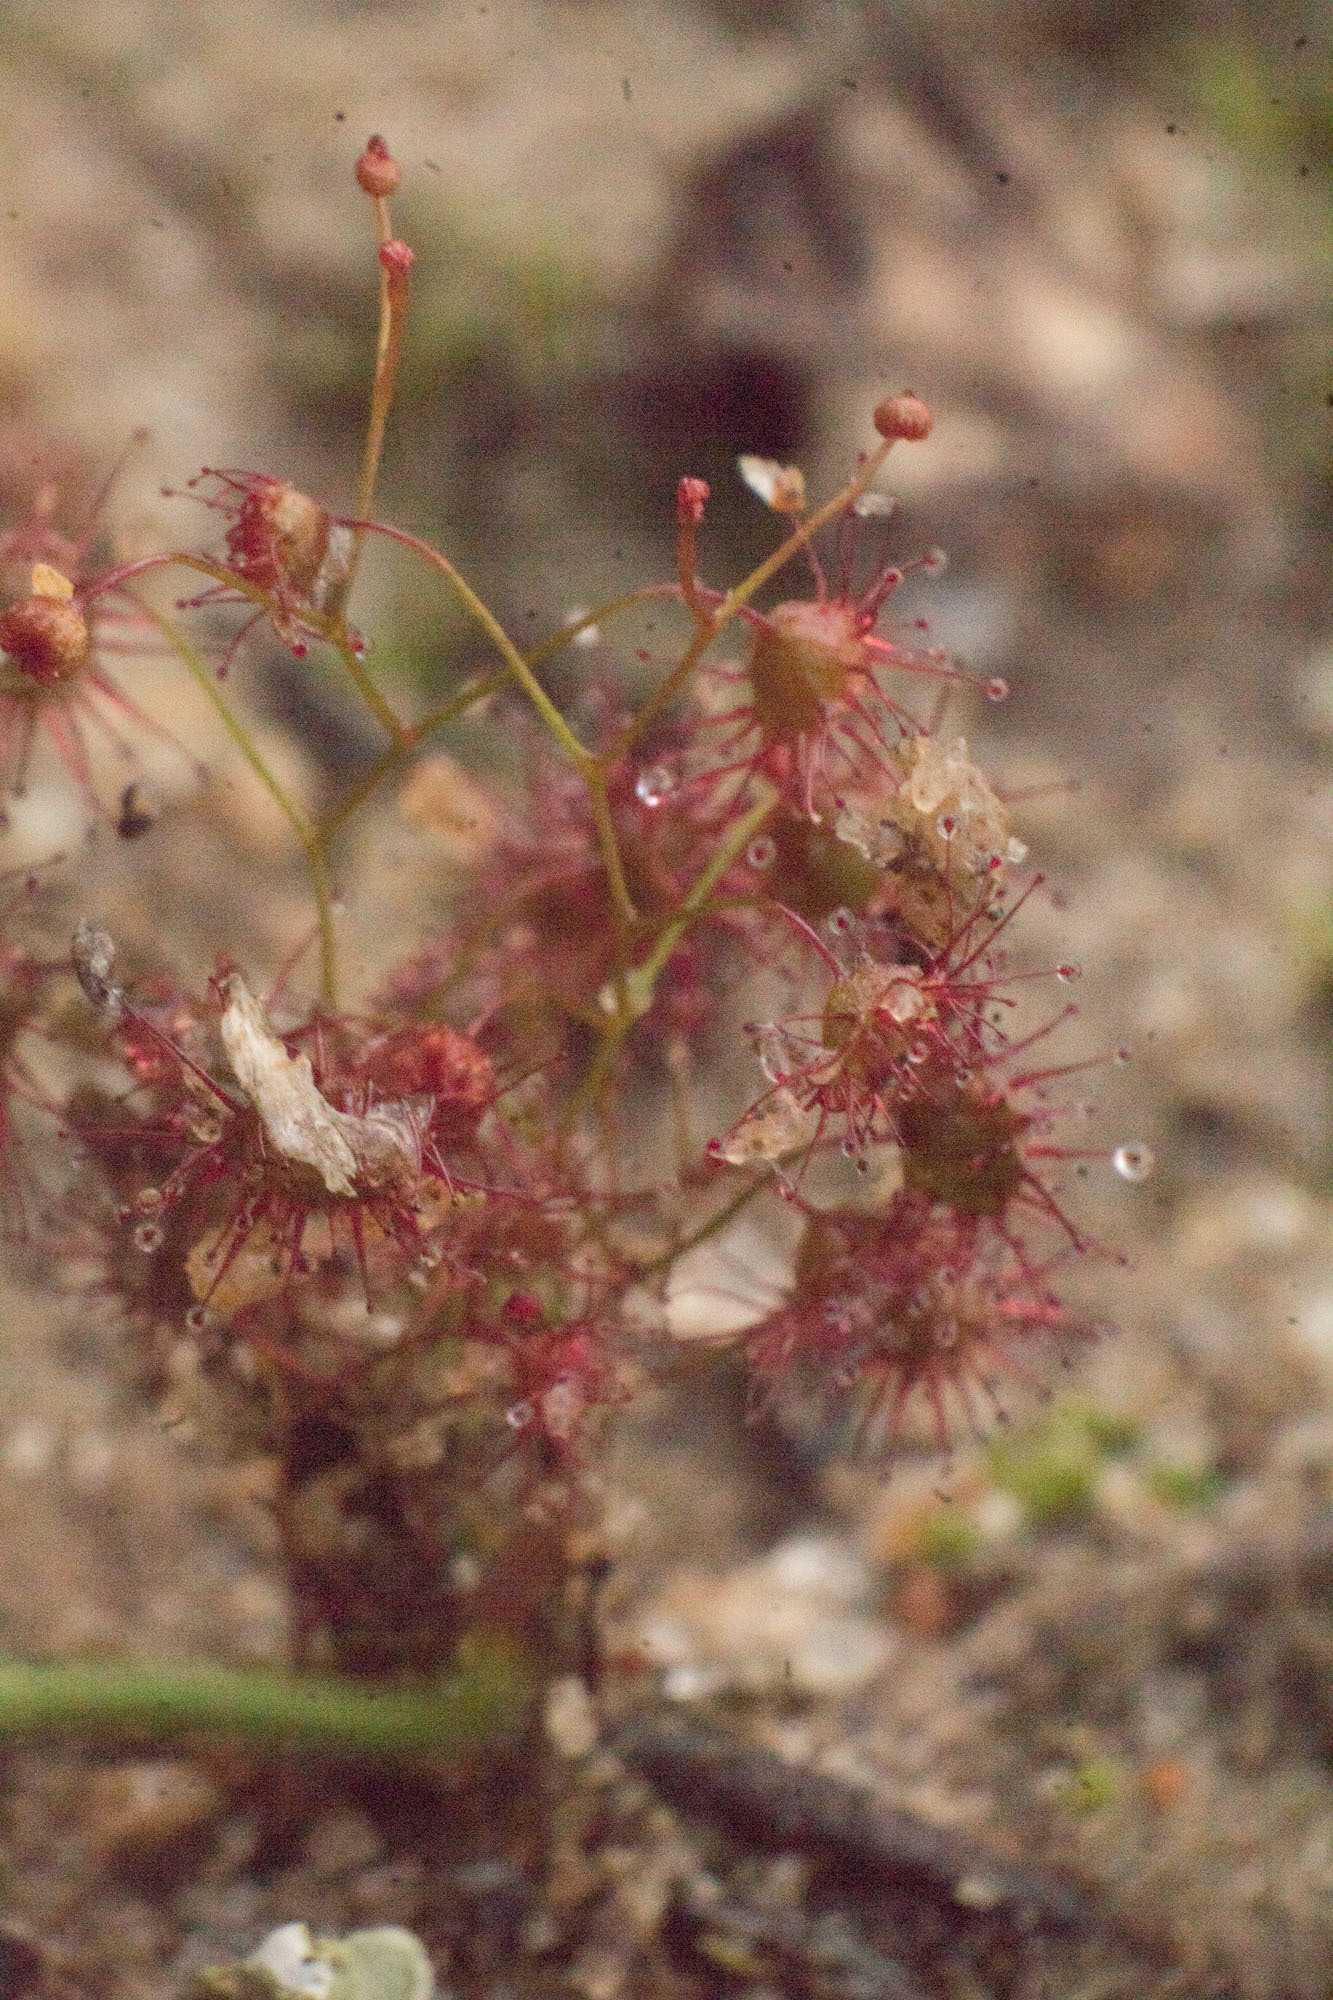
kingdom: Plantae
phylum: Tracheophyta
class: Magnoliopsida
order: Caryophyllales
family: Droseraceae
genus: Drosera
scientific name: Drosera macrantha
